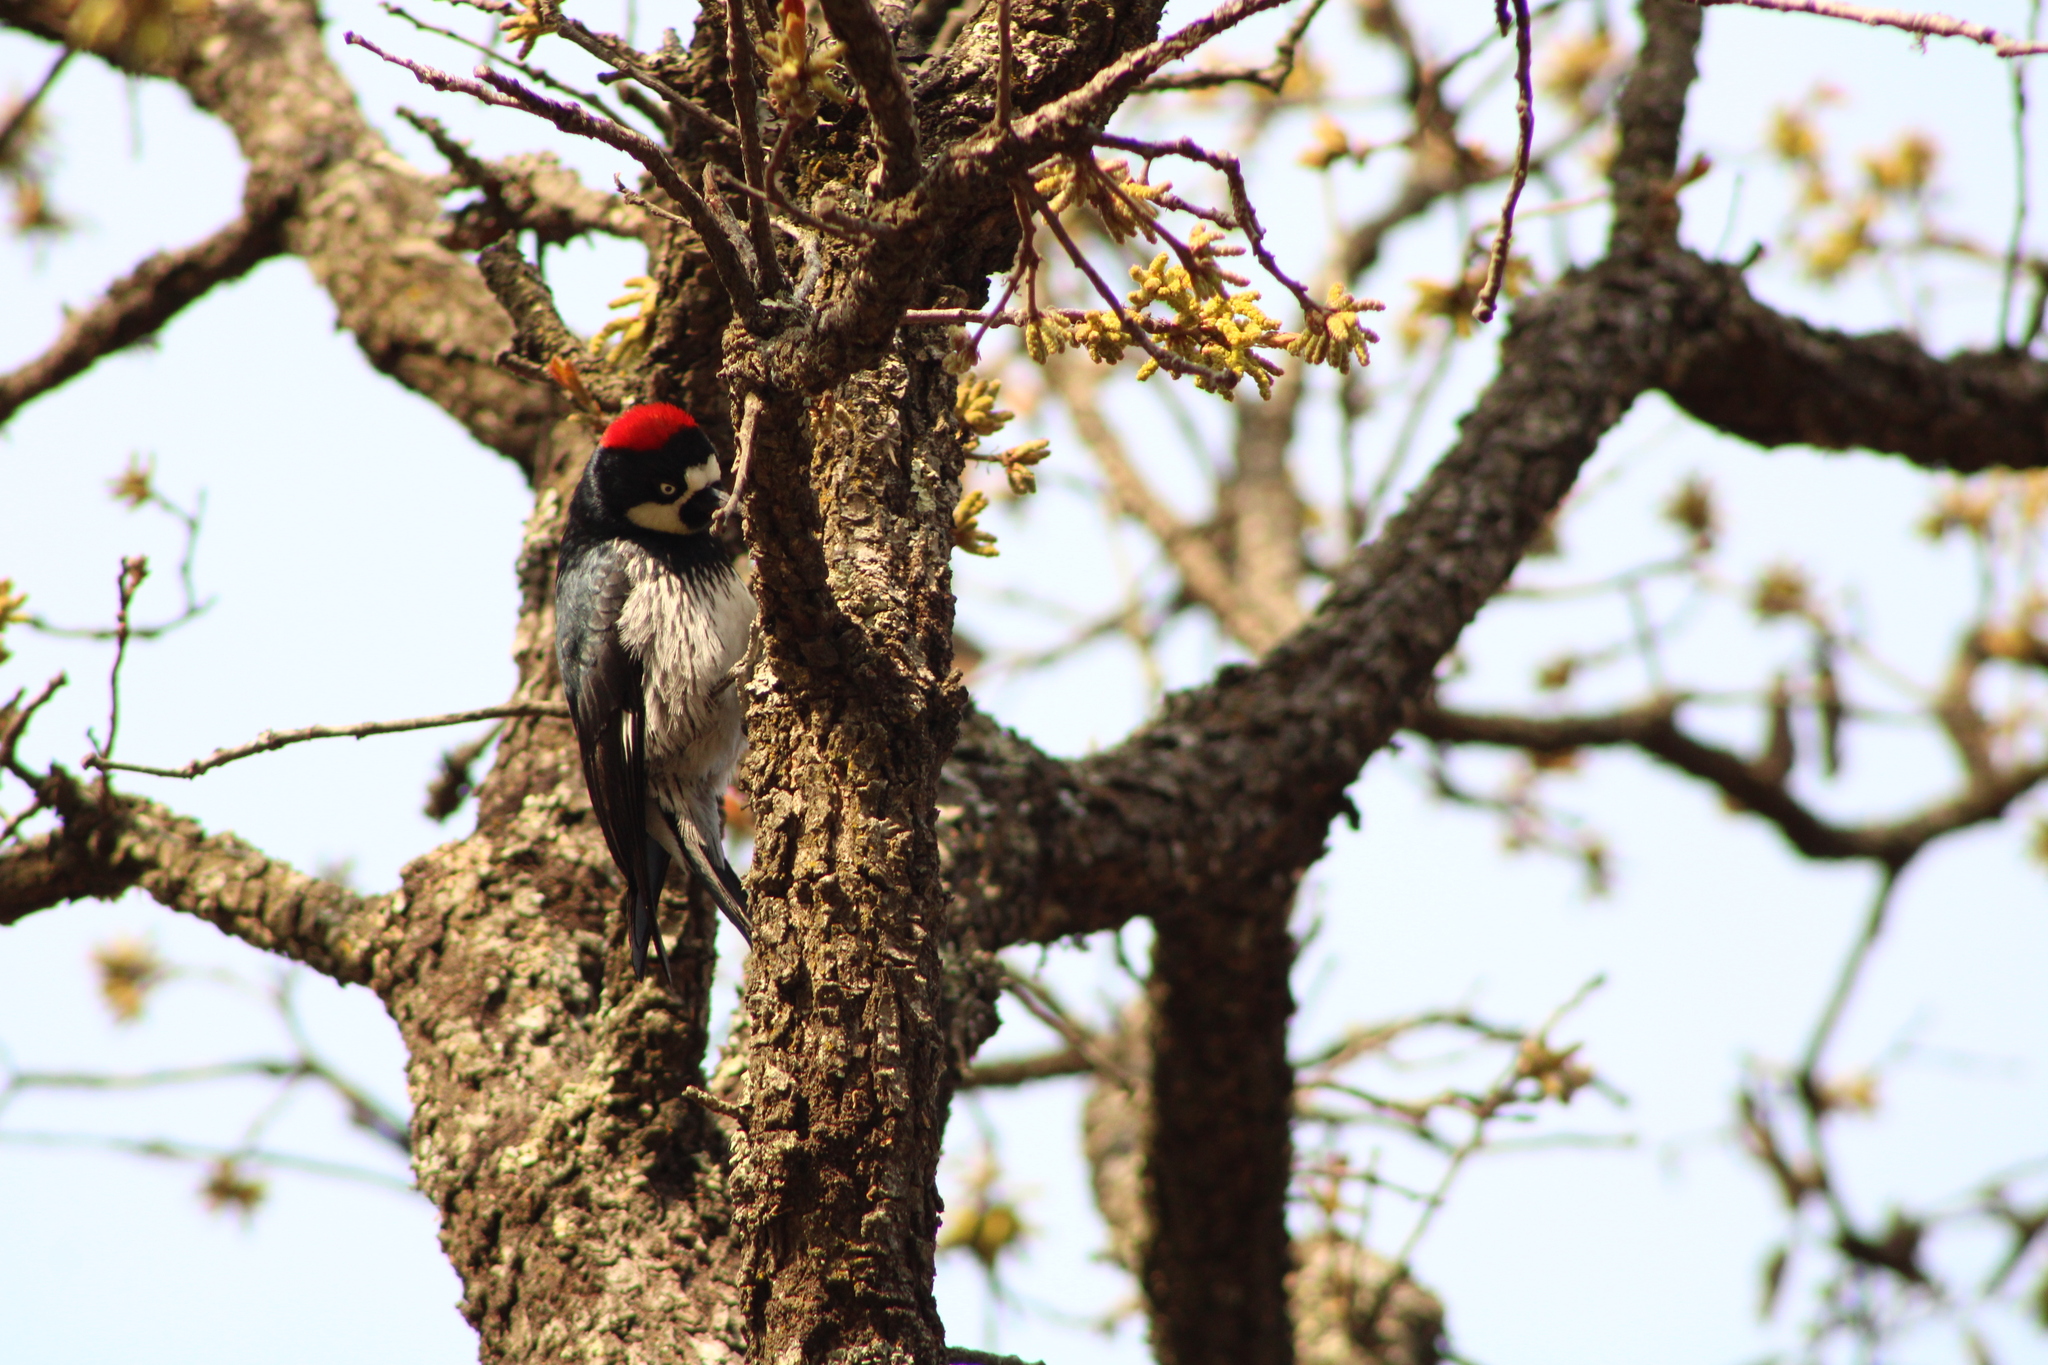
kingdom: Animalia
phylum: Chordata
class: Aves
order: Piciformes
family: Picidae
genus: Melanerpes
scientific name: Melanerpes formicivorus
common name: Acorn woodpecker
